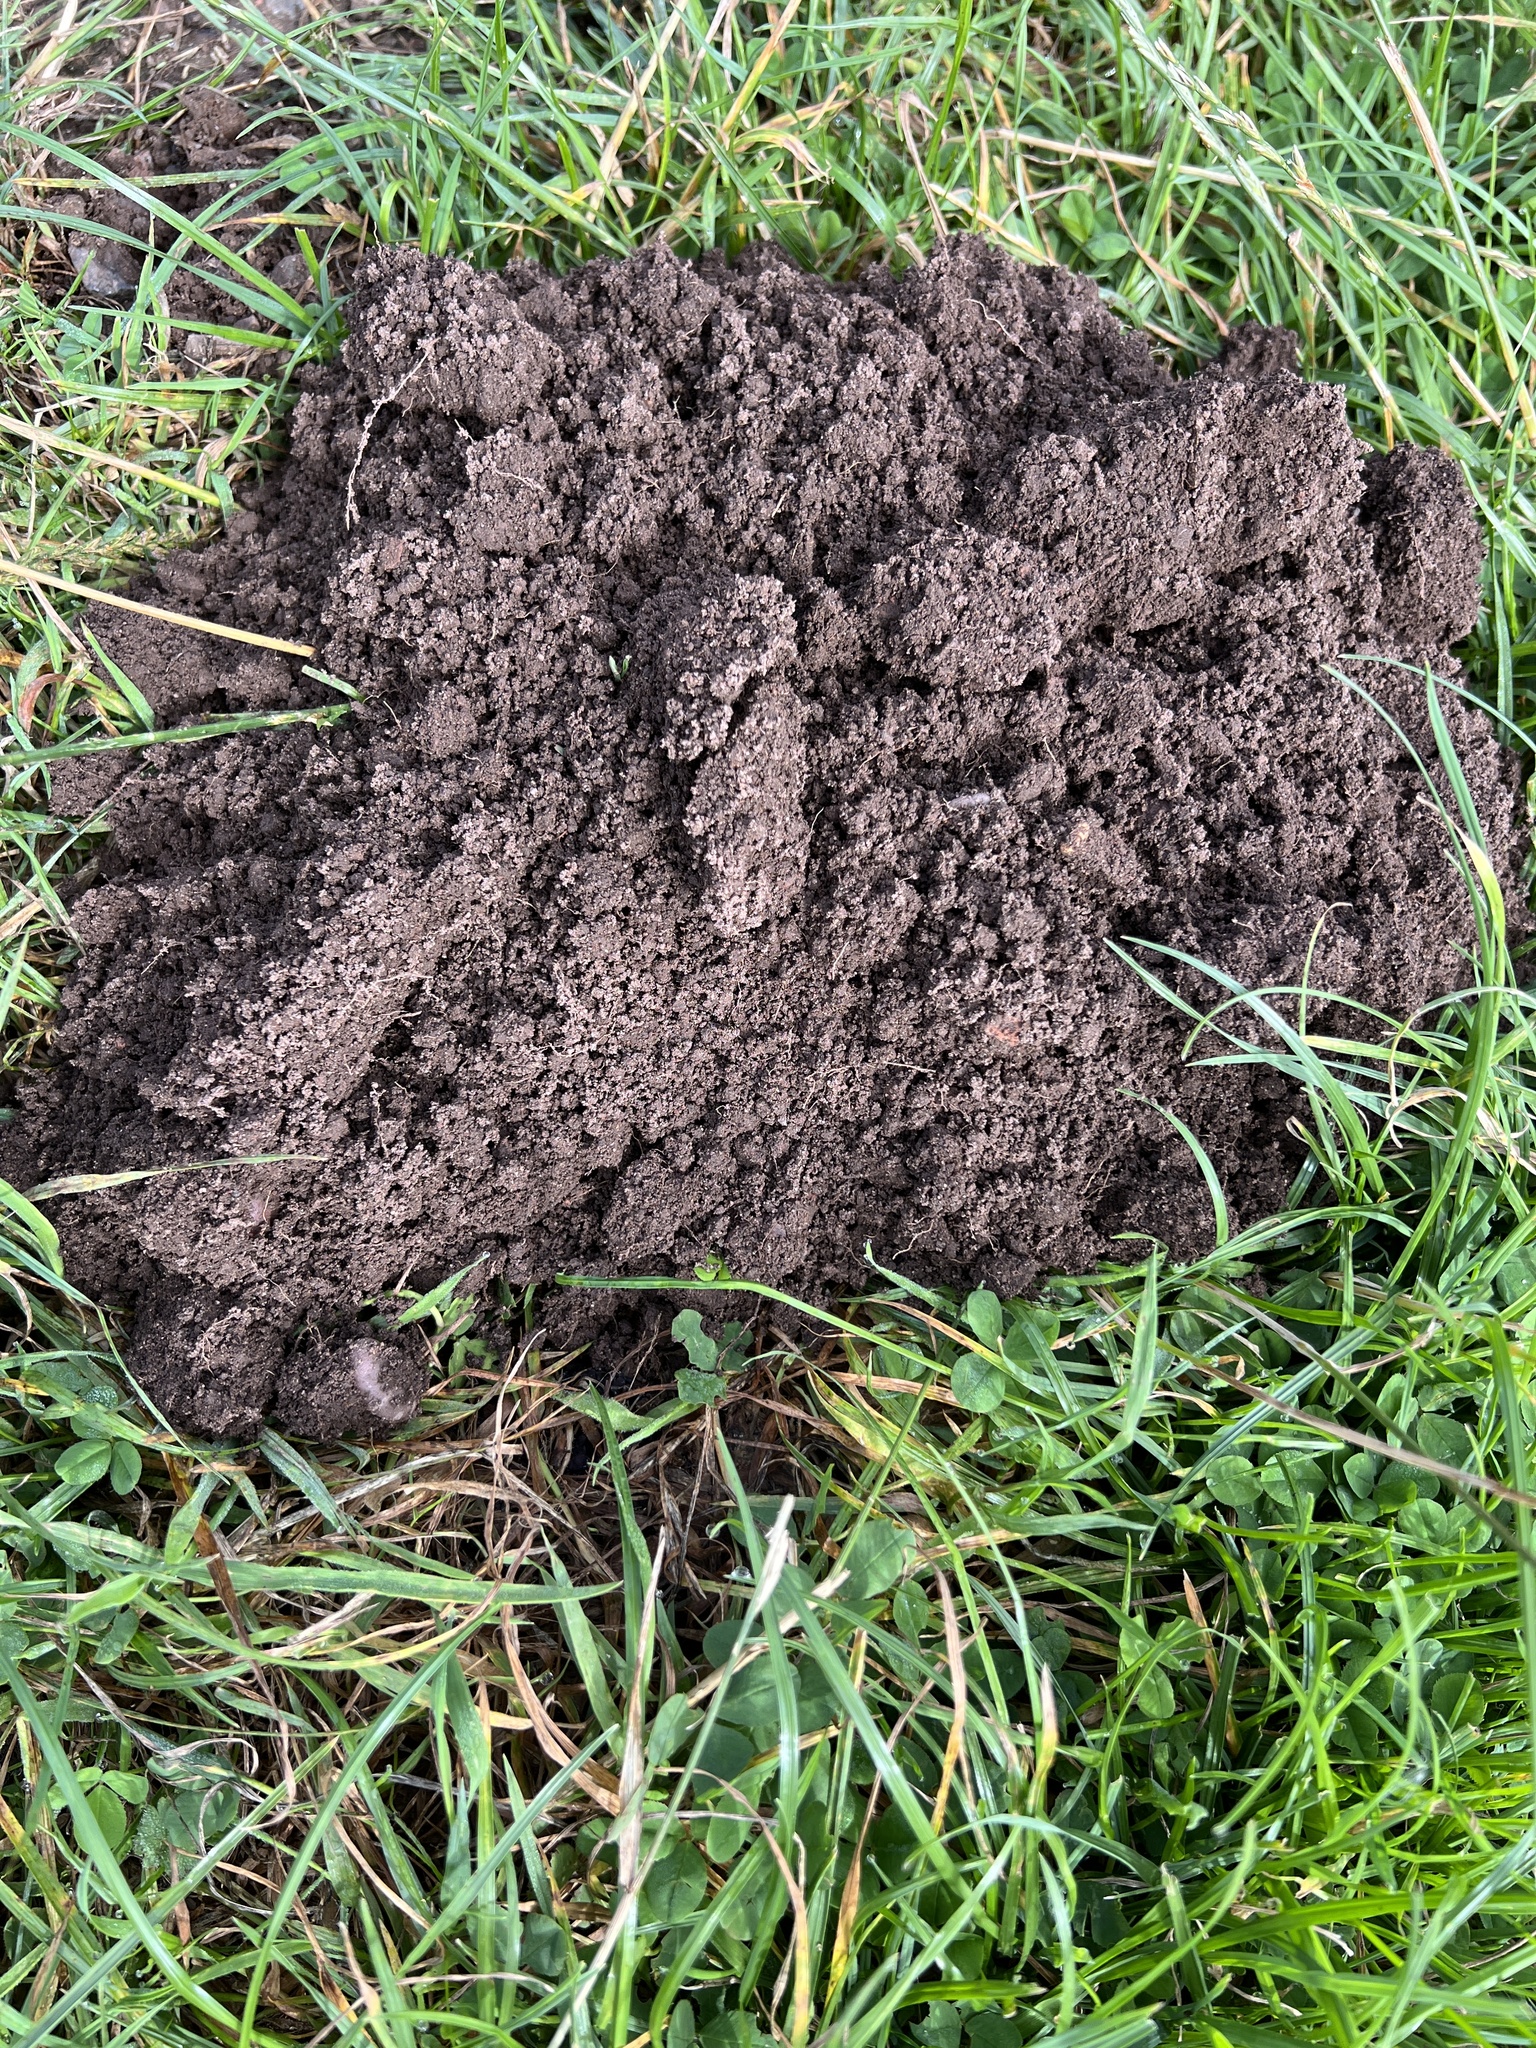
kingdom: Animalia
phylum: Chordata
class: Mammalia
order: Soricomorpha
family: Talpidae
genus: Talpa
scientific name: Talpa europaea
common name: European mole
